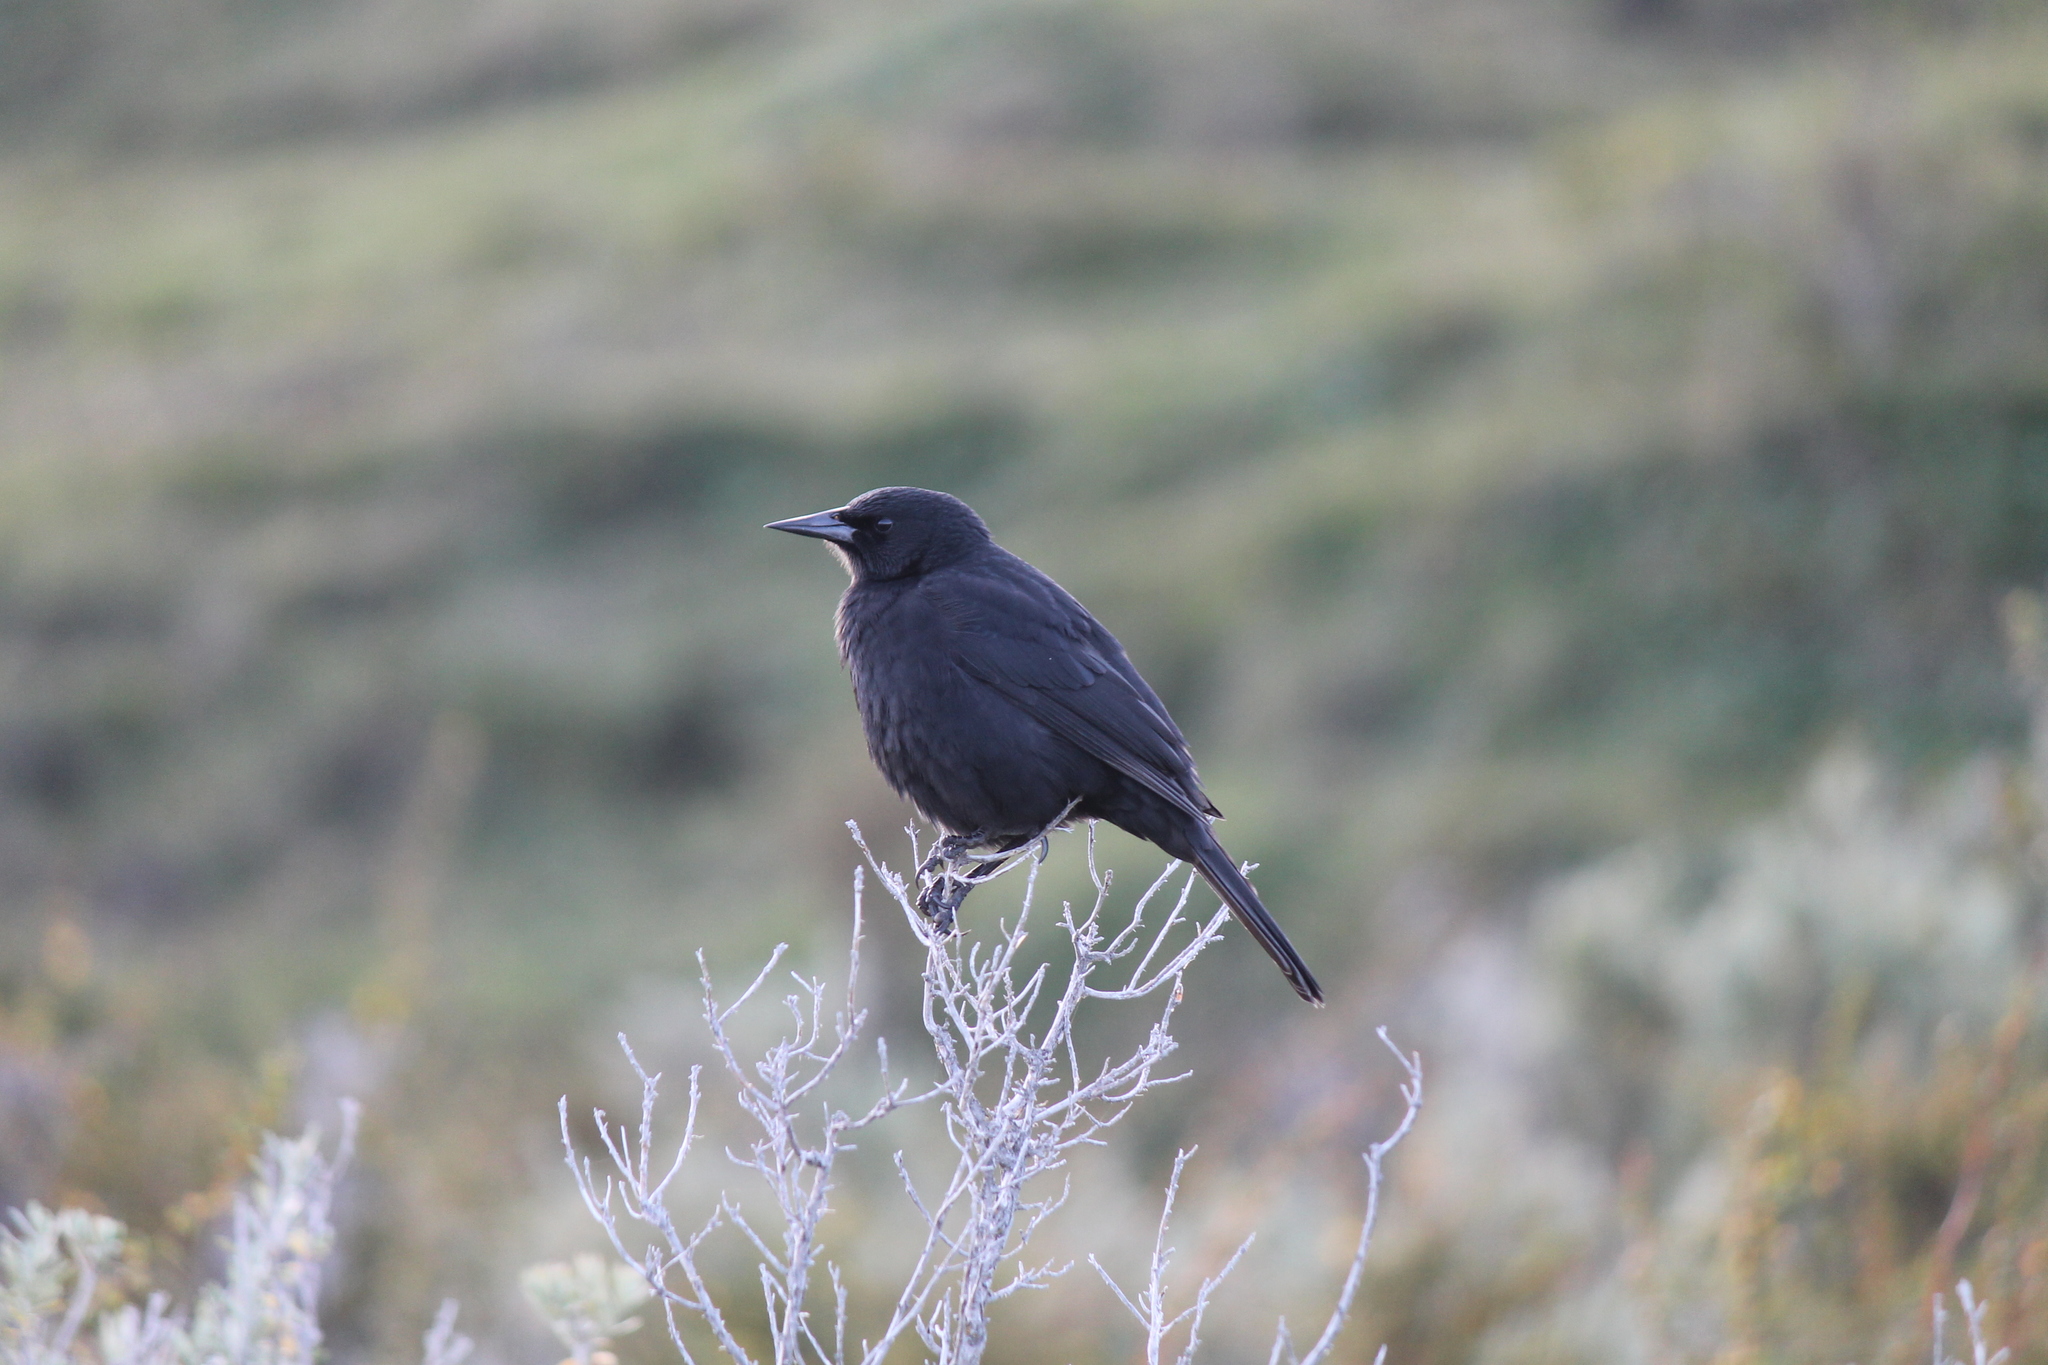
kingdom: Animalia
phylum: Chordata
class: Aves
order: Passeriformes
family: Icteridae
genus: Curaeus
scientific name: Curaeus curaeus
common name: Austral blackbird
